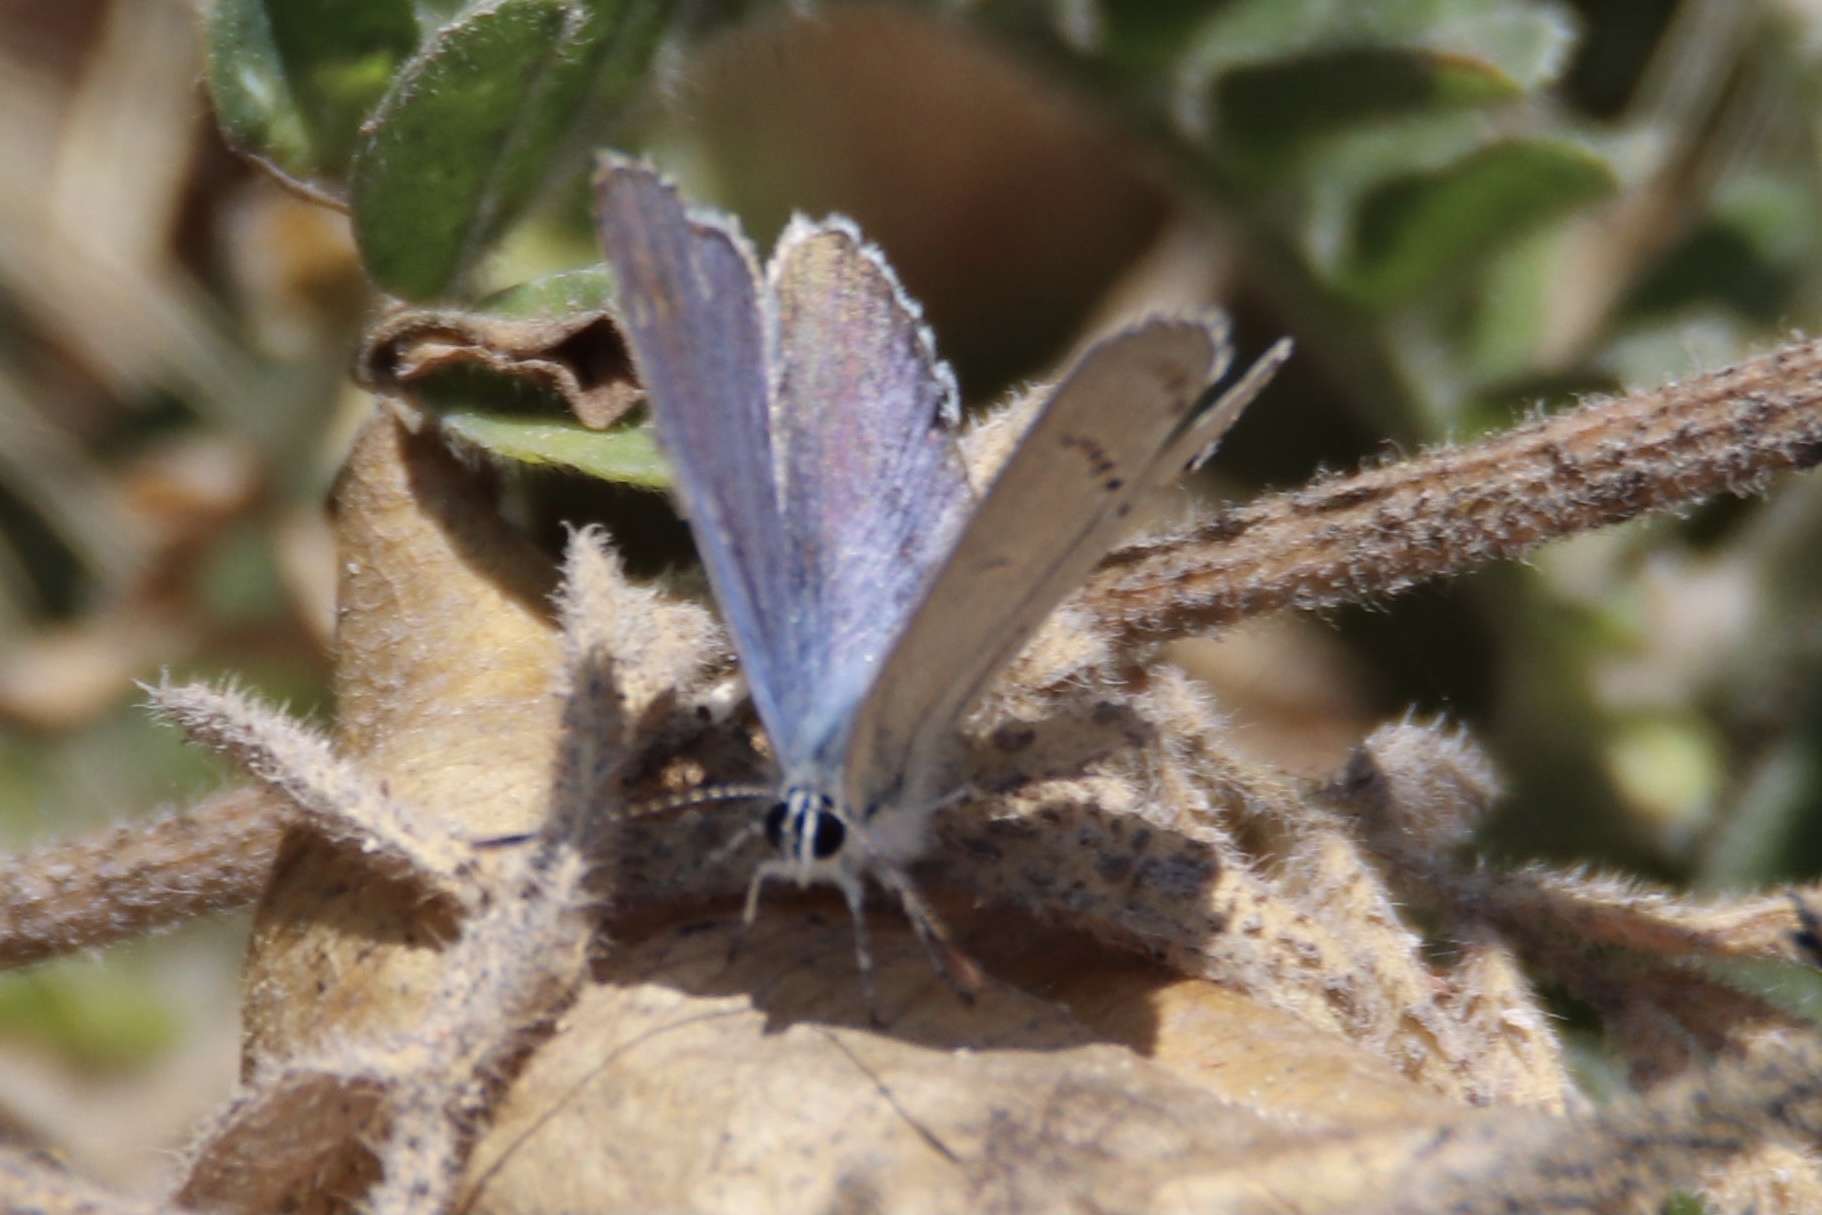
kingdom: Animalia
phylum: Arthropoda
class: Insecta
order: Lepidoptera
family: Lycaenidae
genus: Elkalyce
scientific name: Elkalyce amyntula
